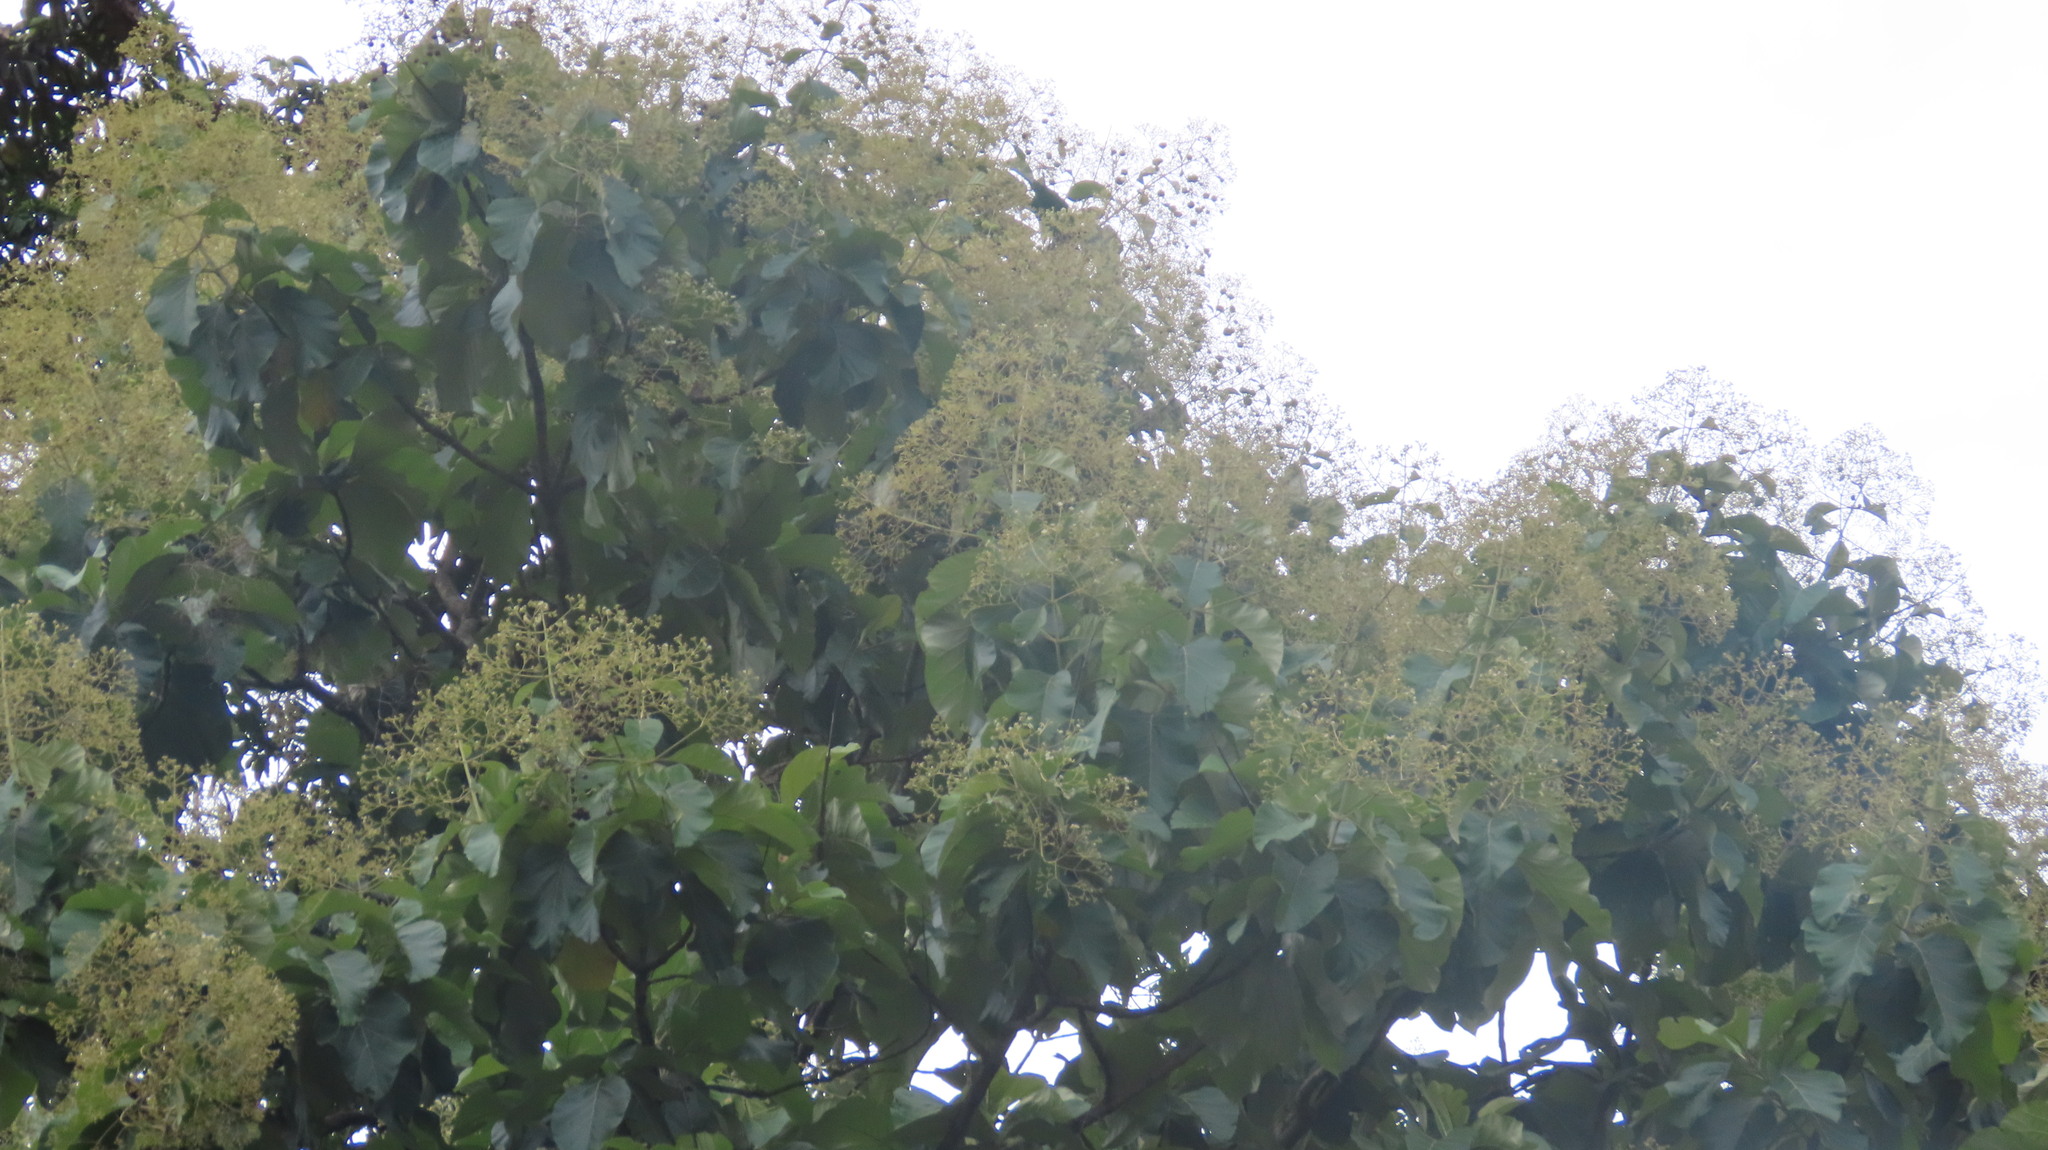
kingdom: Plantae
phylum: Tracheophyta
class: Magnoliopsida
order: Lamiales
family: Lamiaceae
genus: Tectona
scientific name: Tectona grandis
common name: Teak
